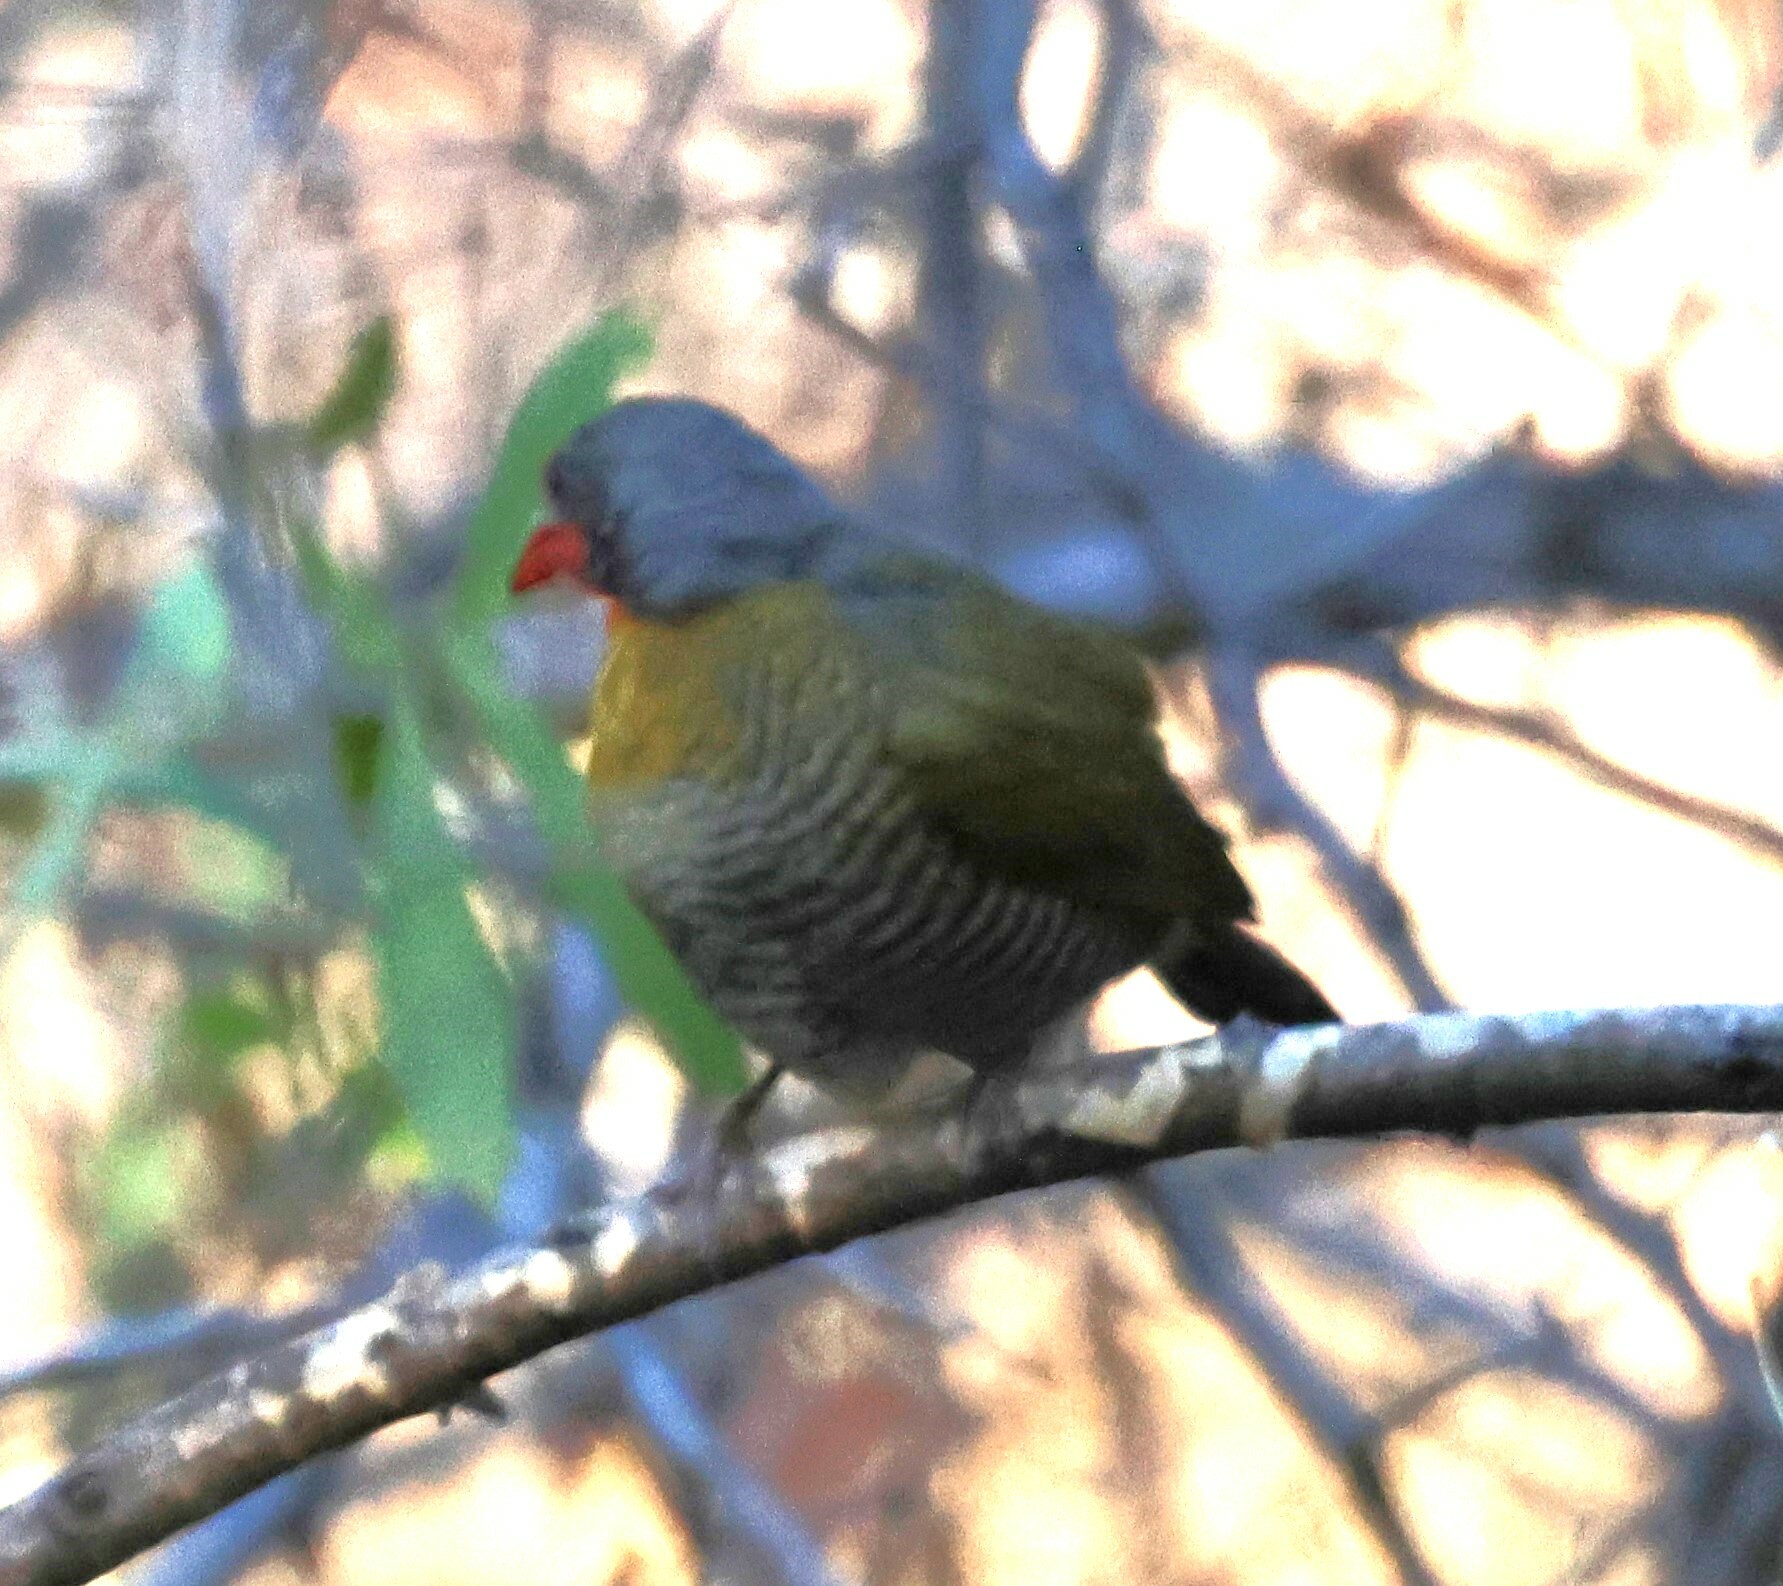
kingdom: Animalia
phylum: Chordata
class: Aves
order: Passeriformes
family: Estrildidae
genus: Pytilia
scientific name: Pytilia melba
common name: Green-winged pytilia
